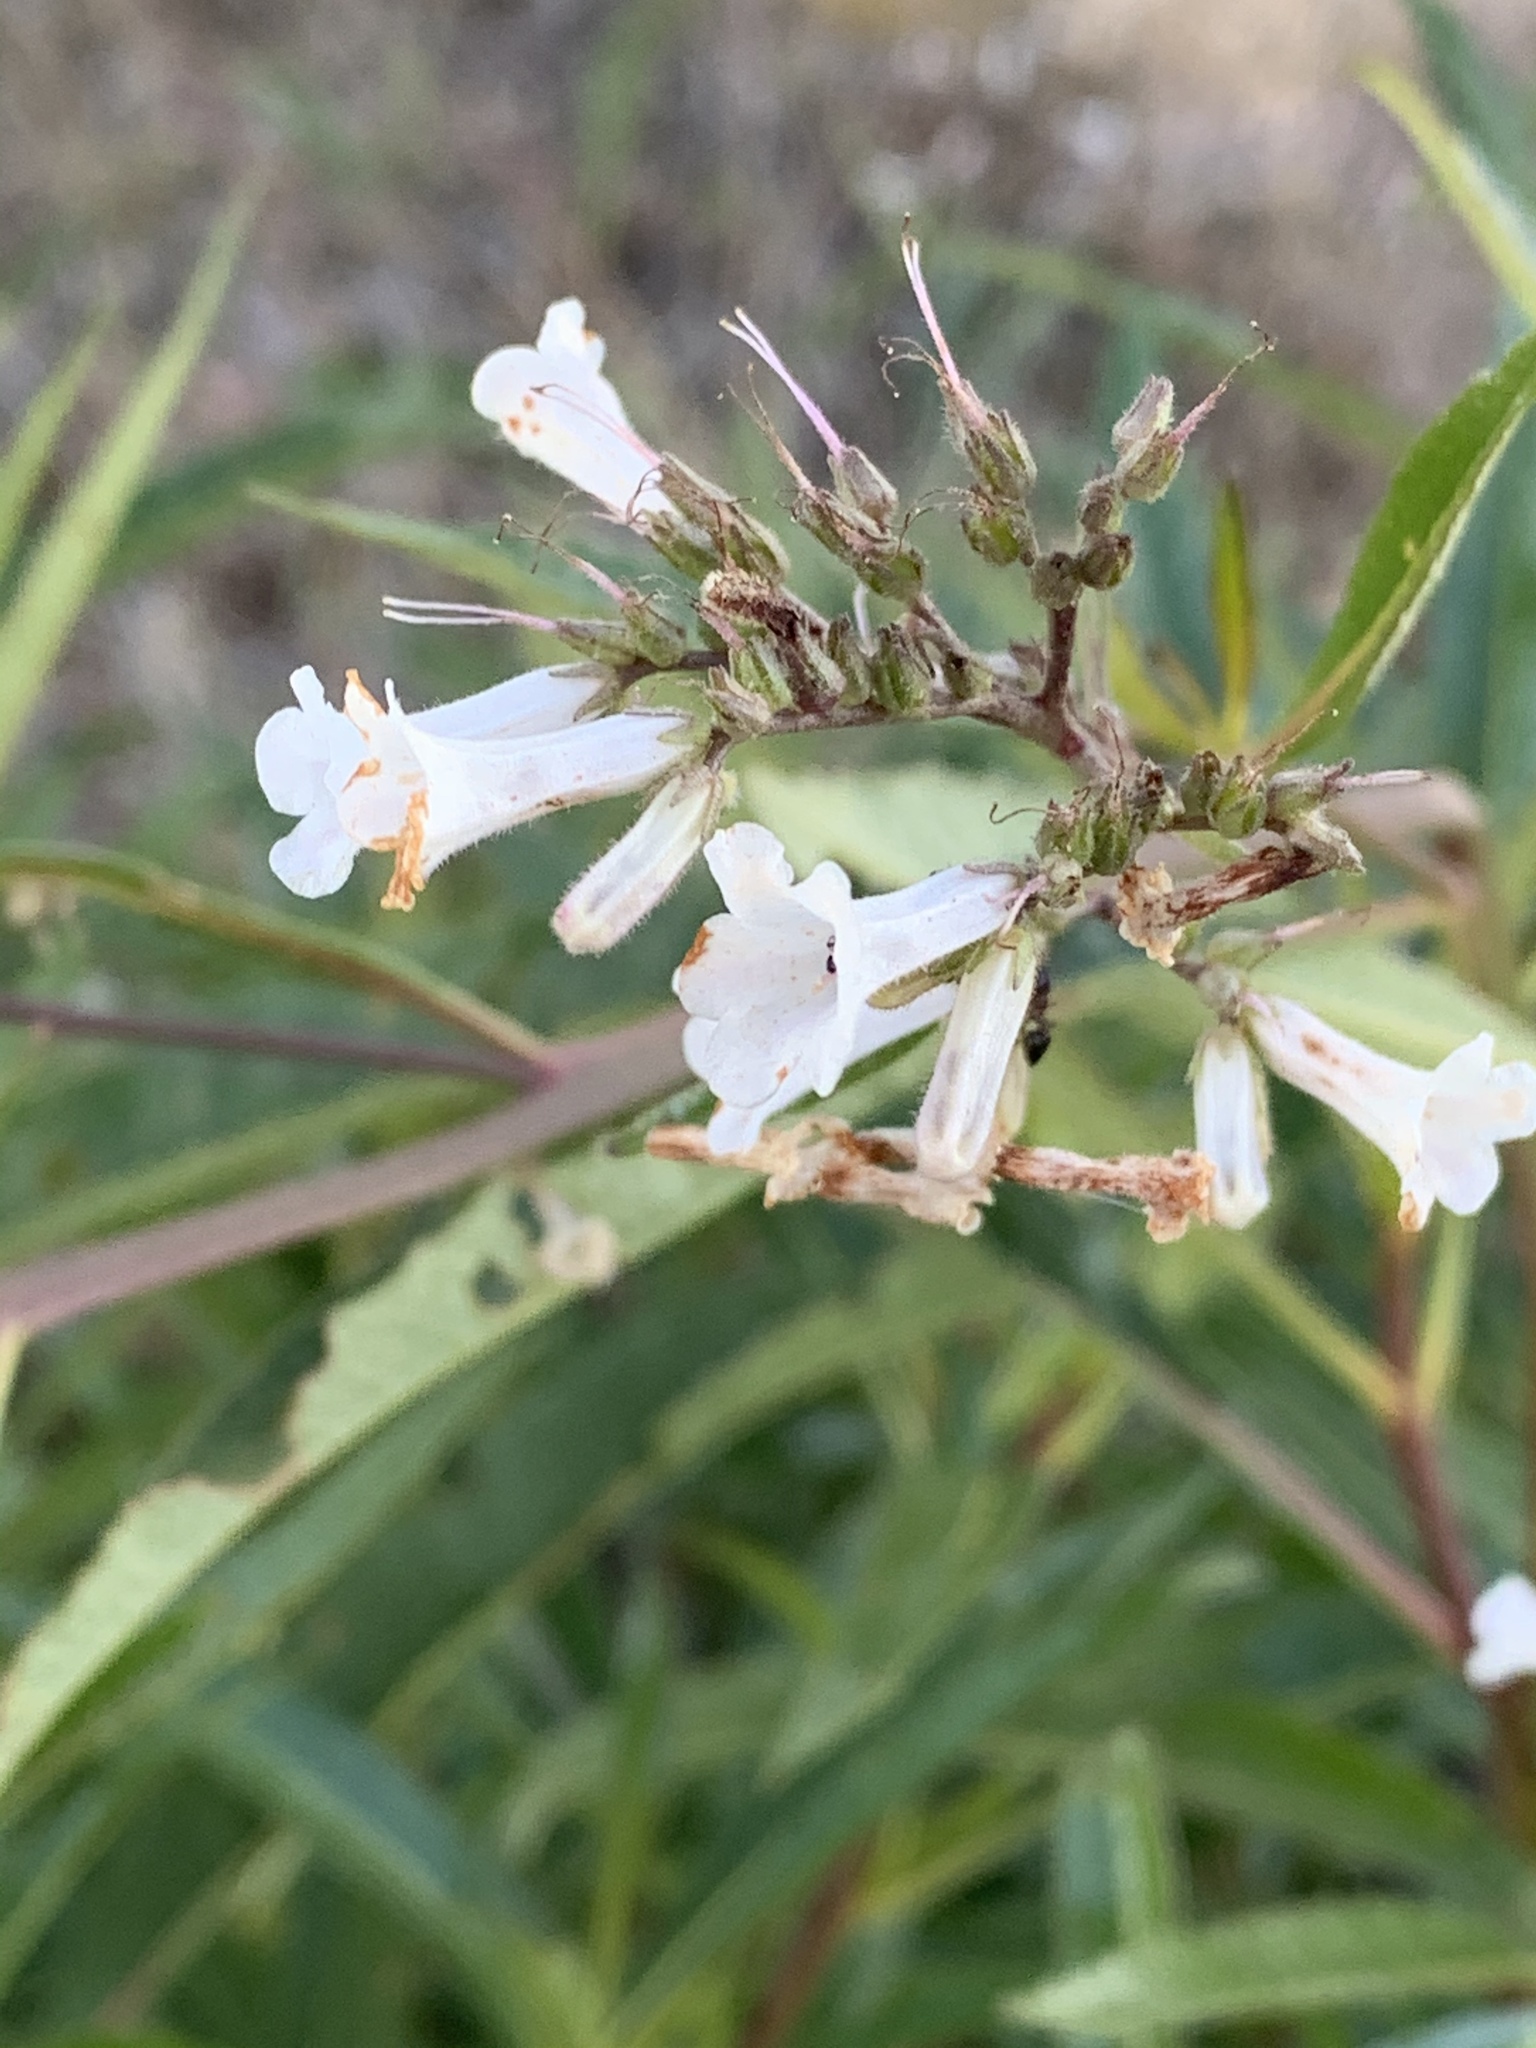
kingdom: Plantae
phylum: Tracheophyta
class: Magnoliopsida
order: Boraginales
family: Namaceae
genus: Eriodictyon
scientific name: Eriodictyon californicum
